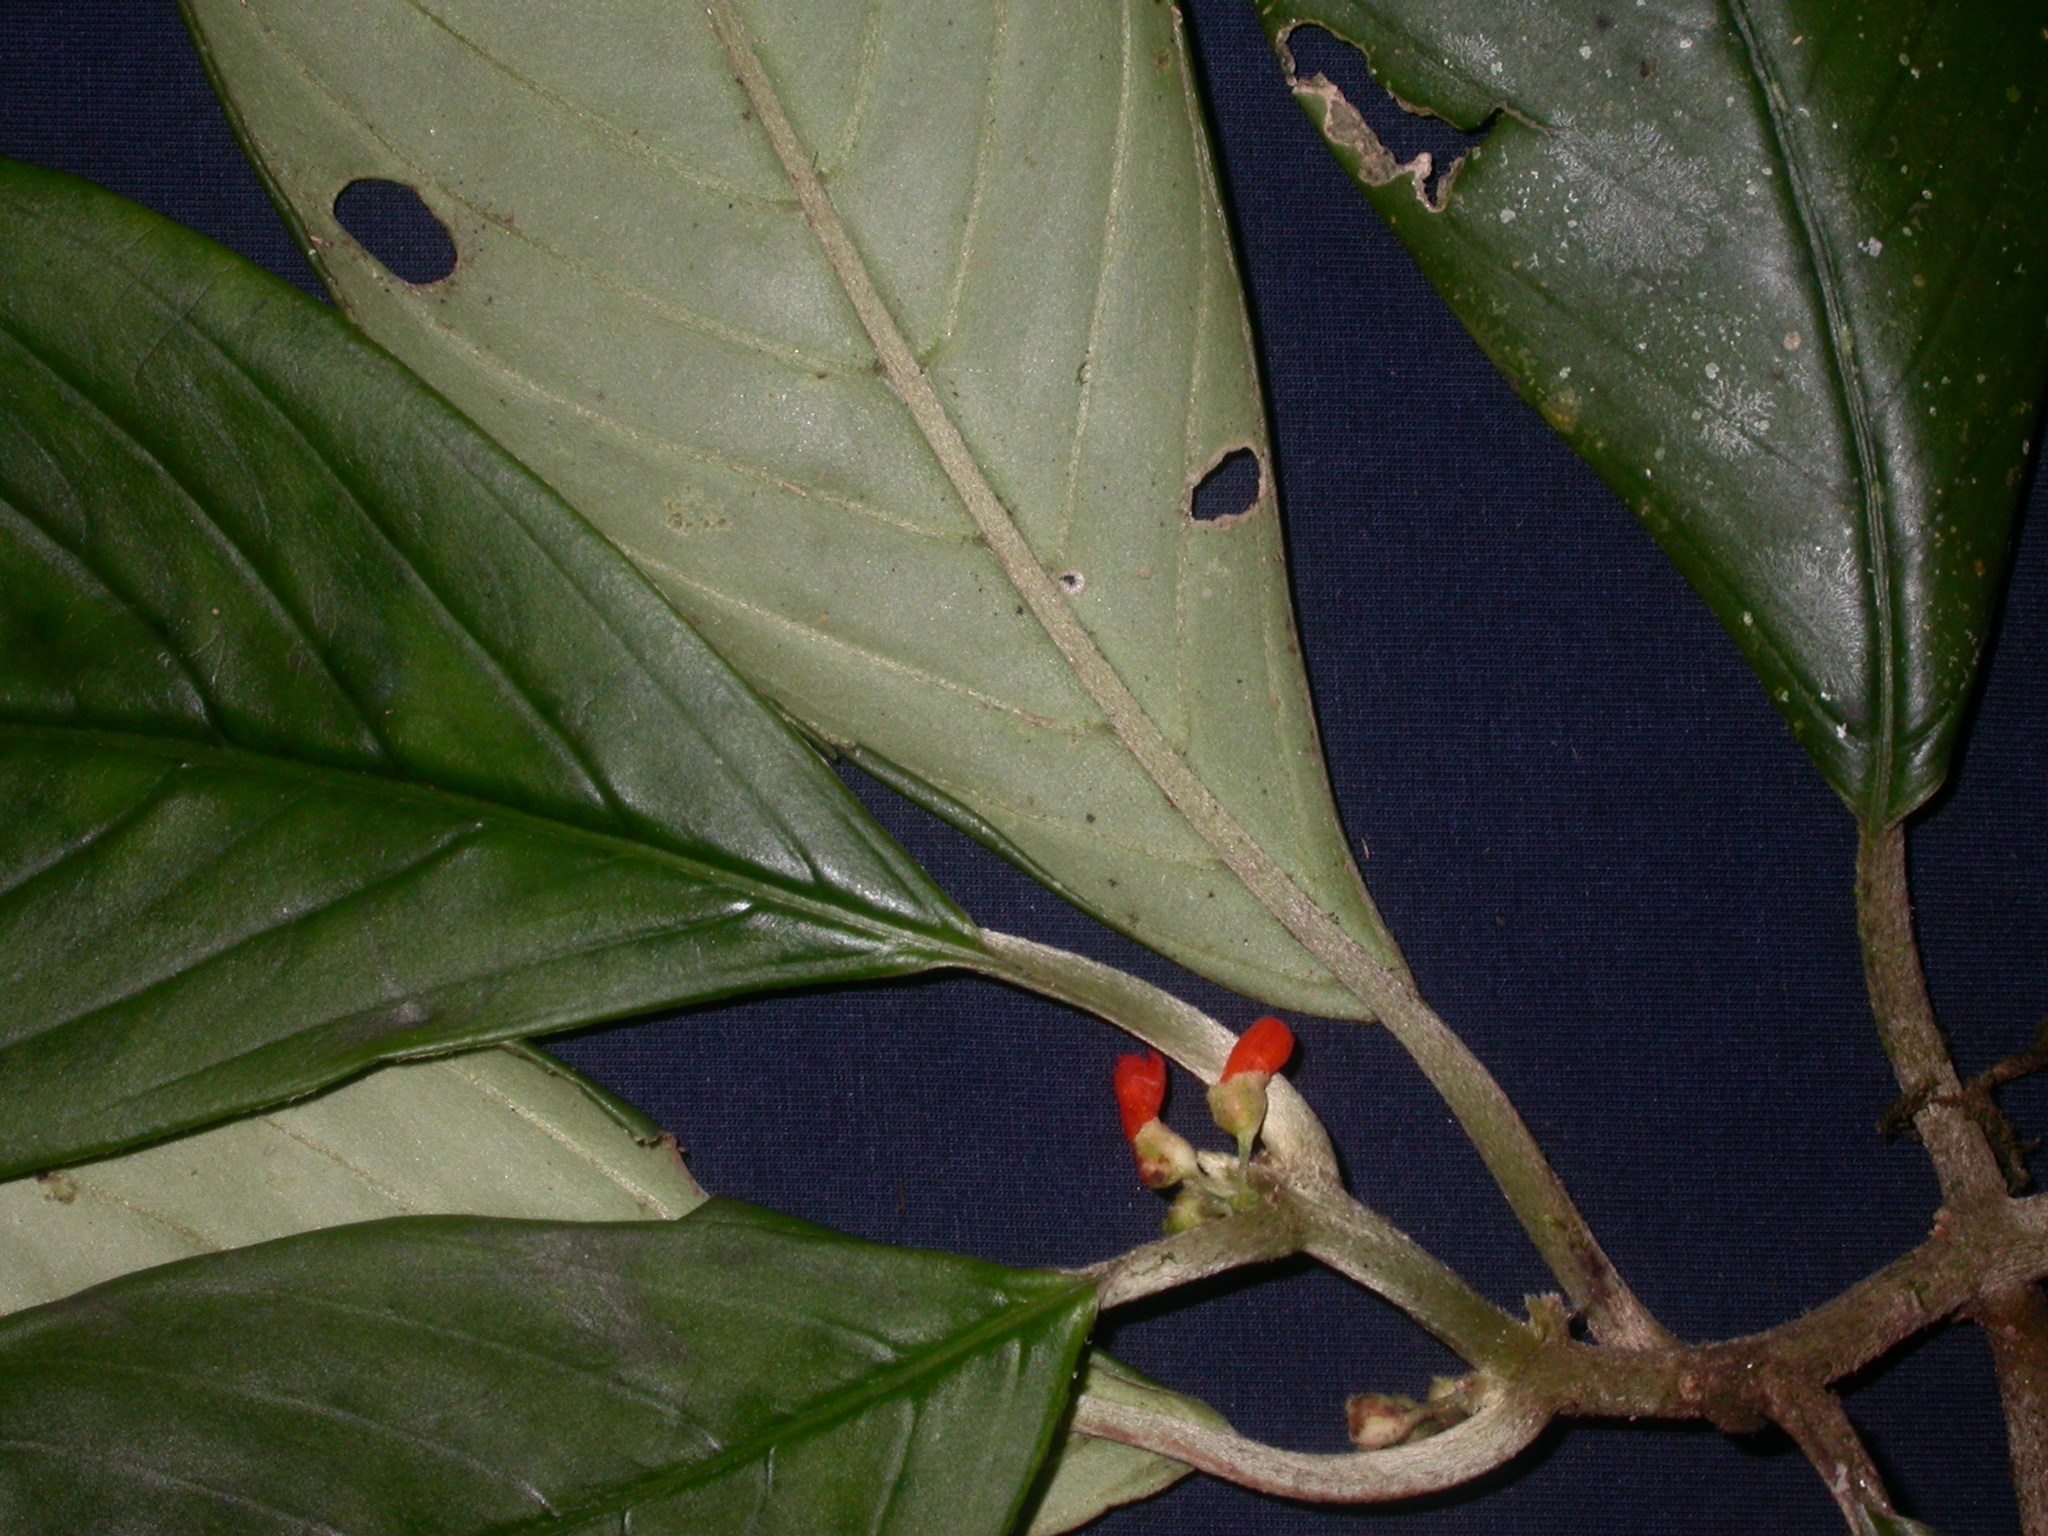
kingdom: Plantae
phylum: Tracheophyta
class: Magnoliopsida
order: Lamiales
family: Gesneriaceae
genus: Besleria
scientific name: Besleria tambensis
